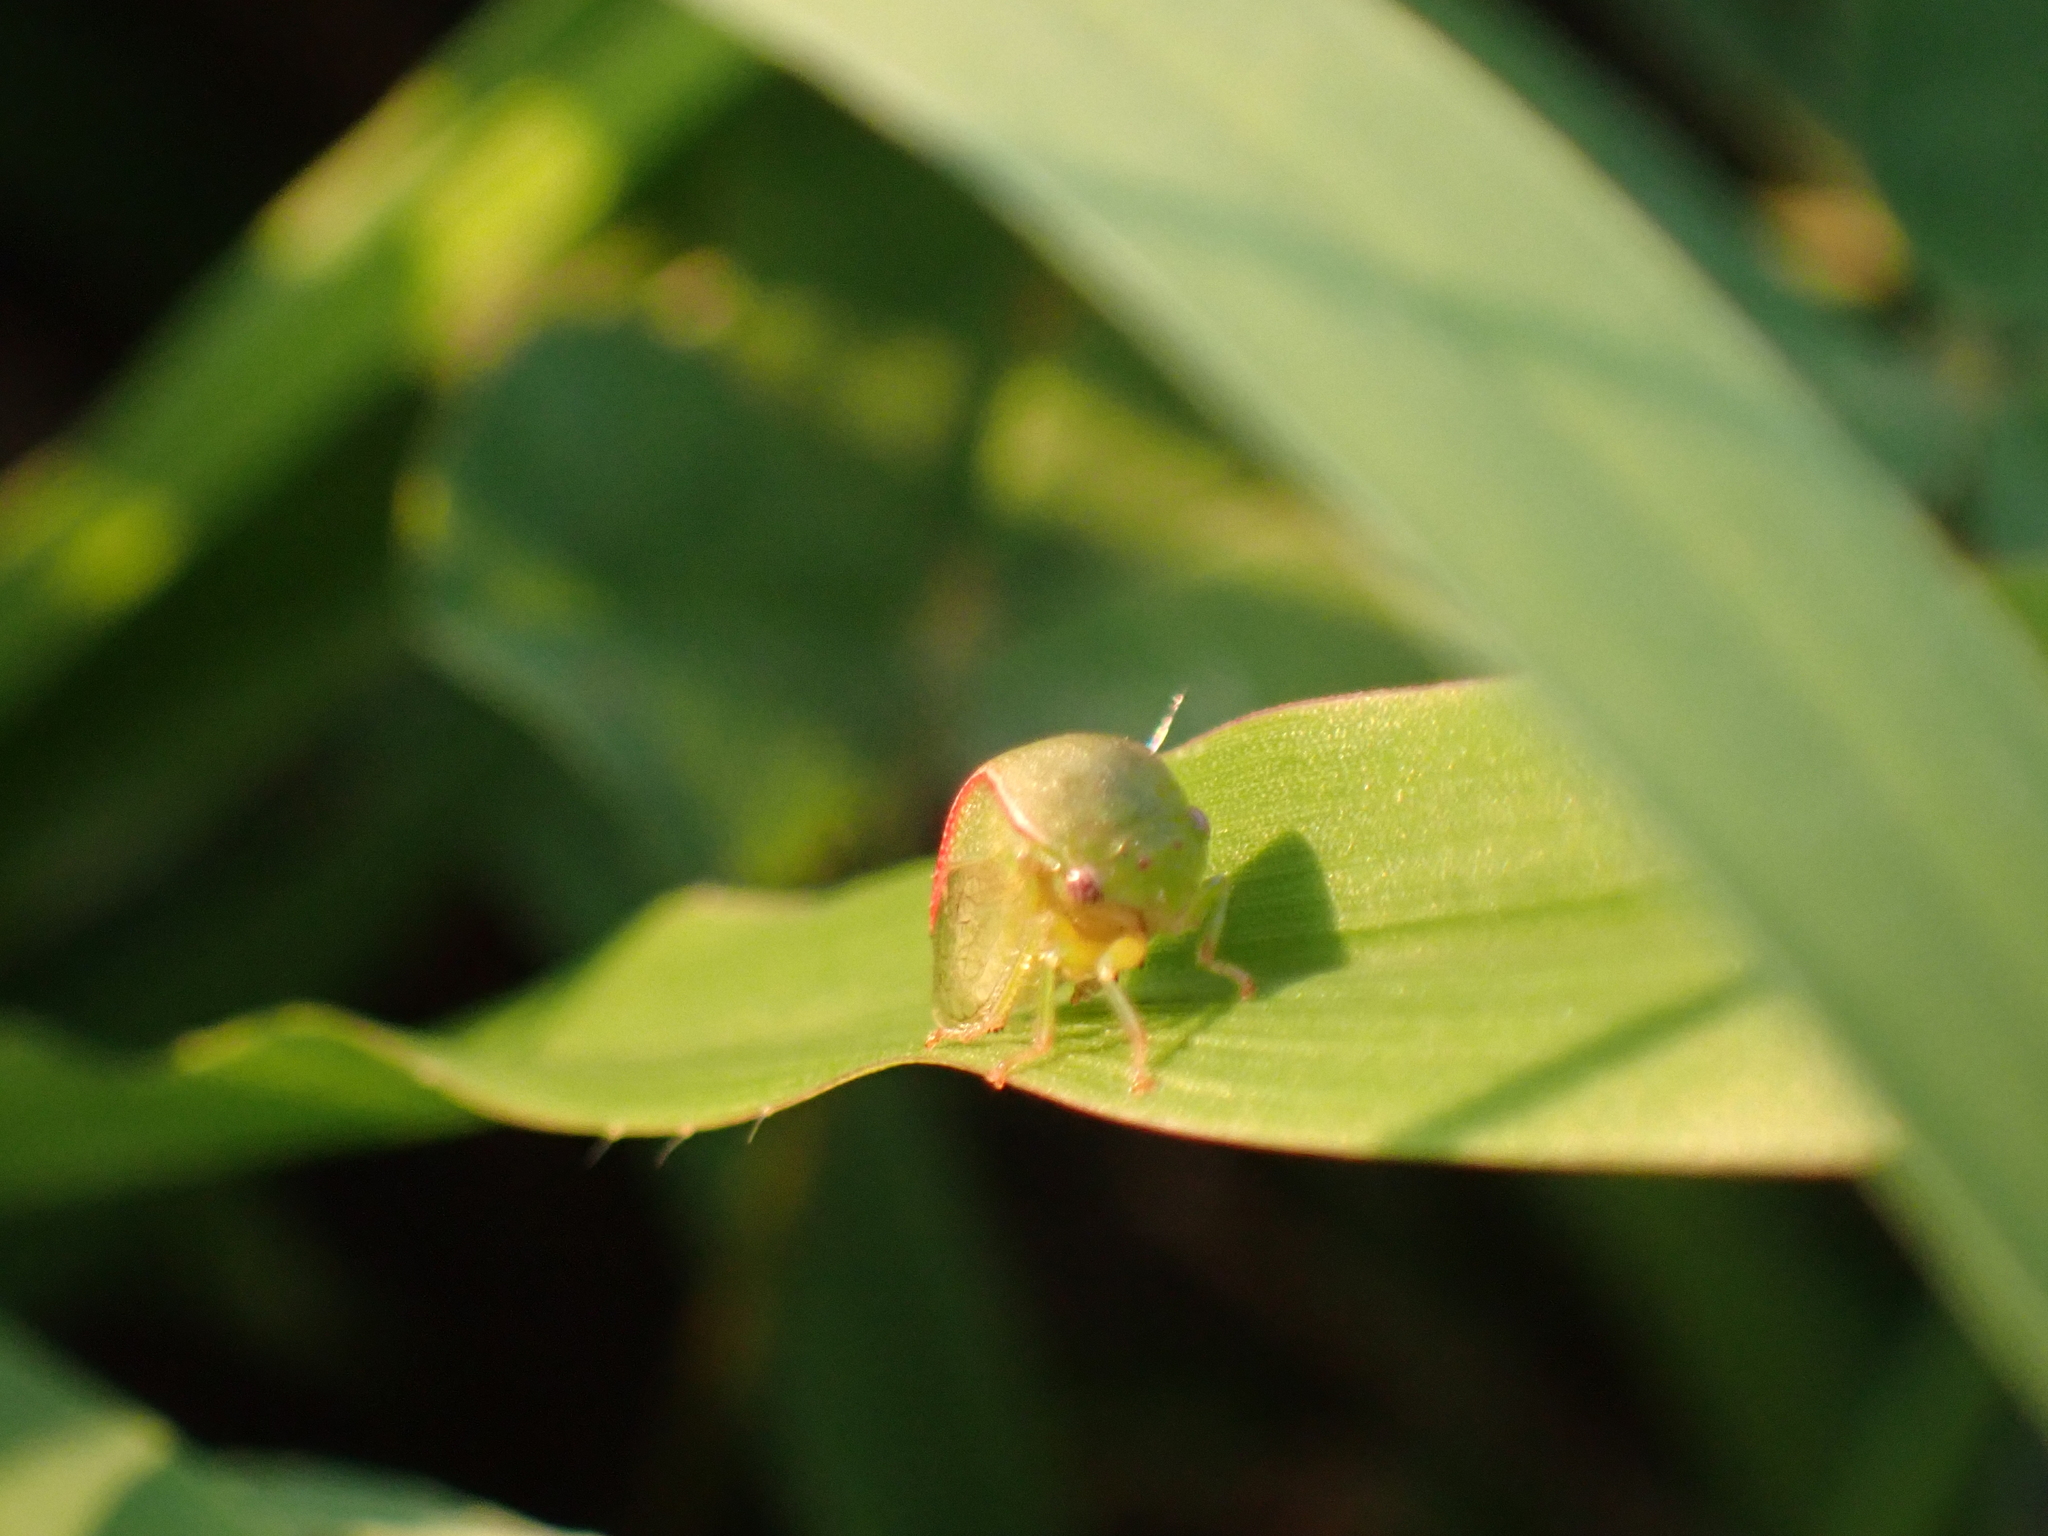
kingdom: Animalia
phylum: Arthropoda
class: Insecta
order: Hemiptera
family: Membracidae
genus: Spissistilus
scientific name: Spissistilus festina
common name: Membracid bug
